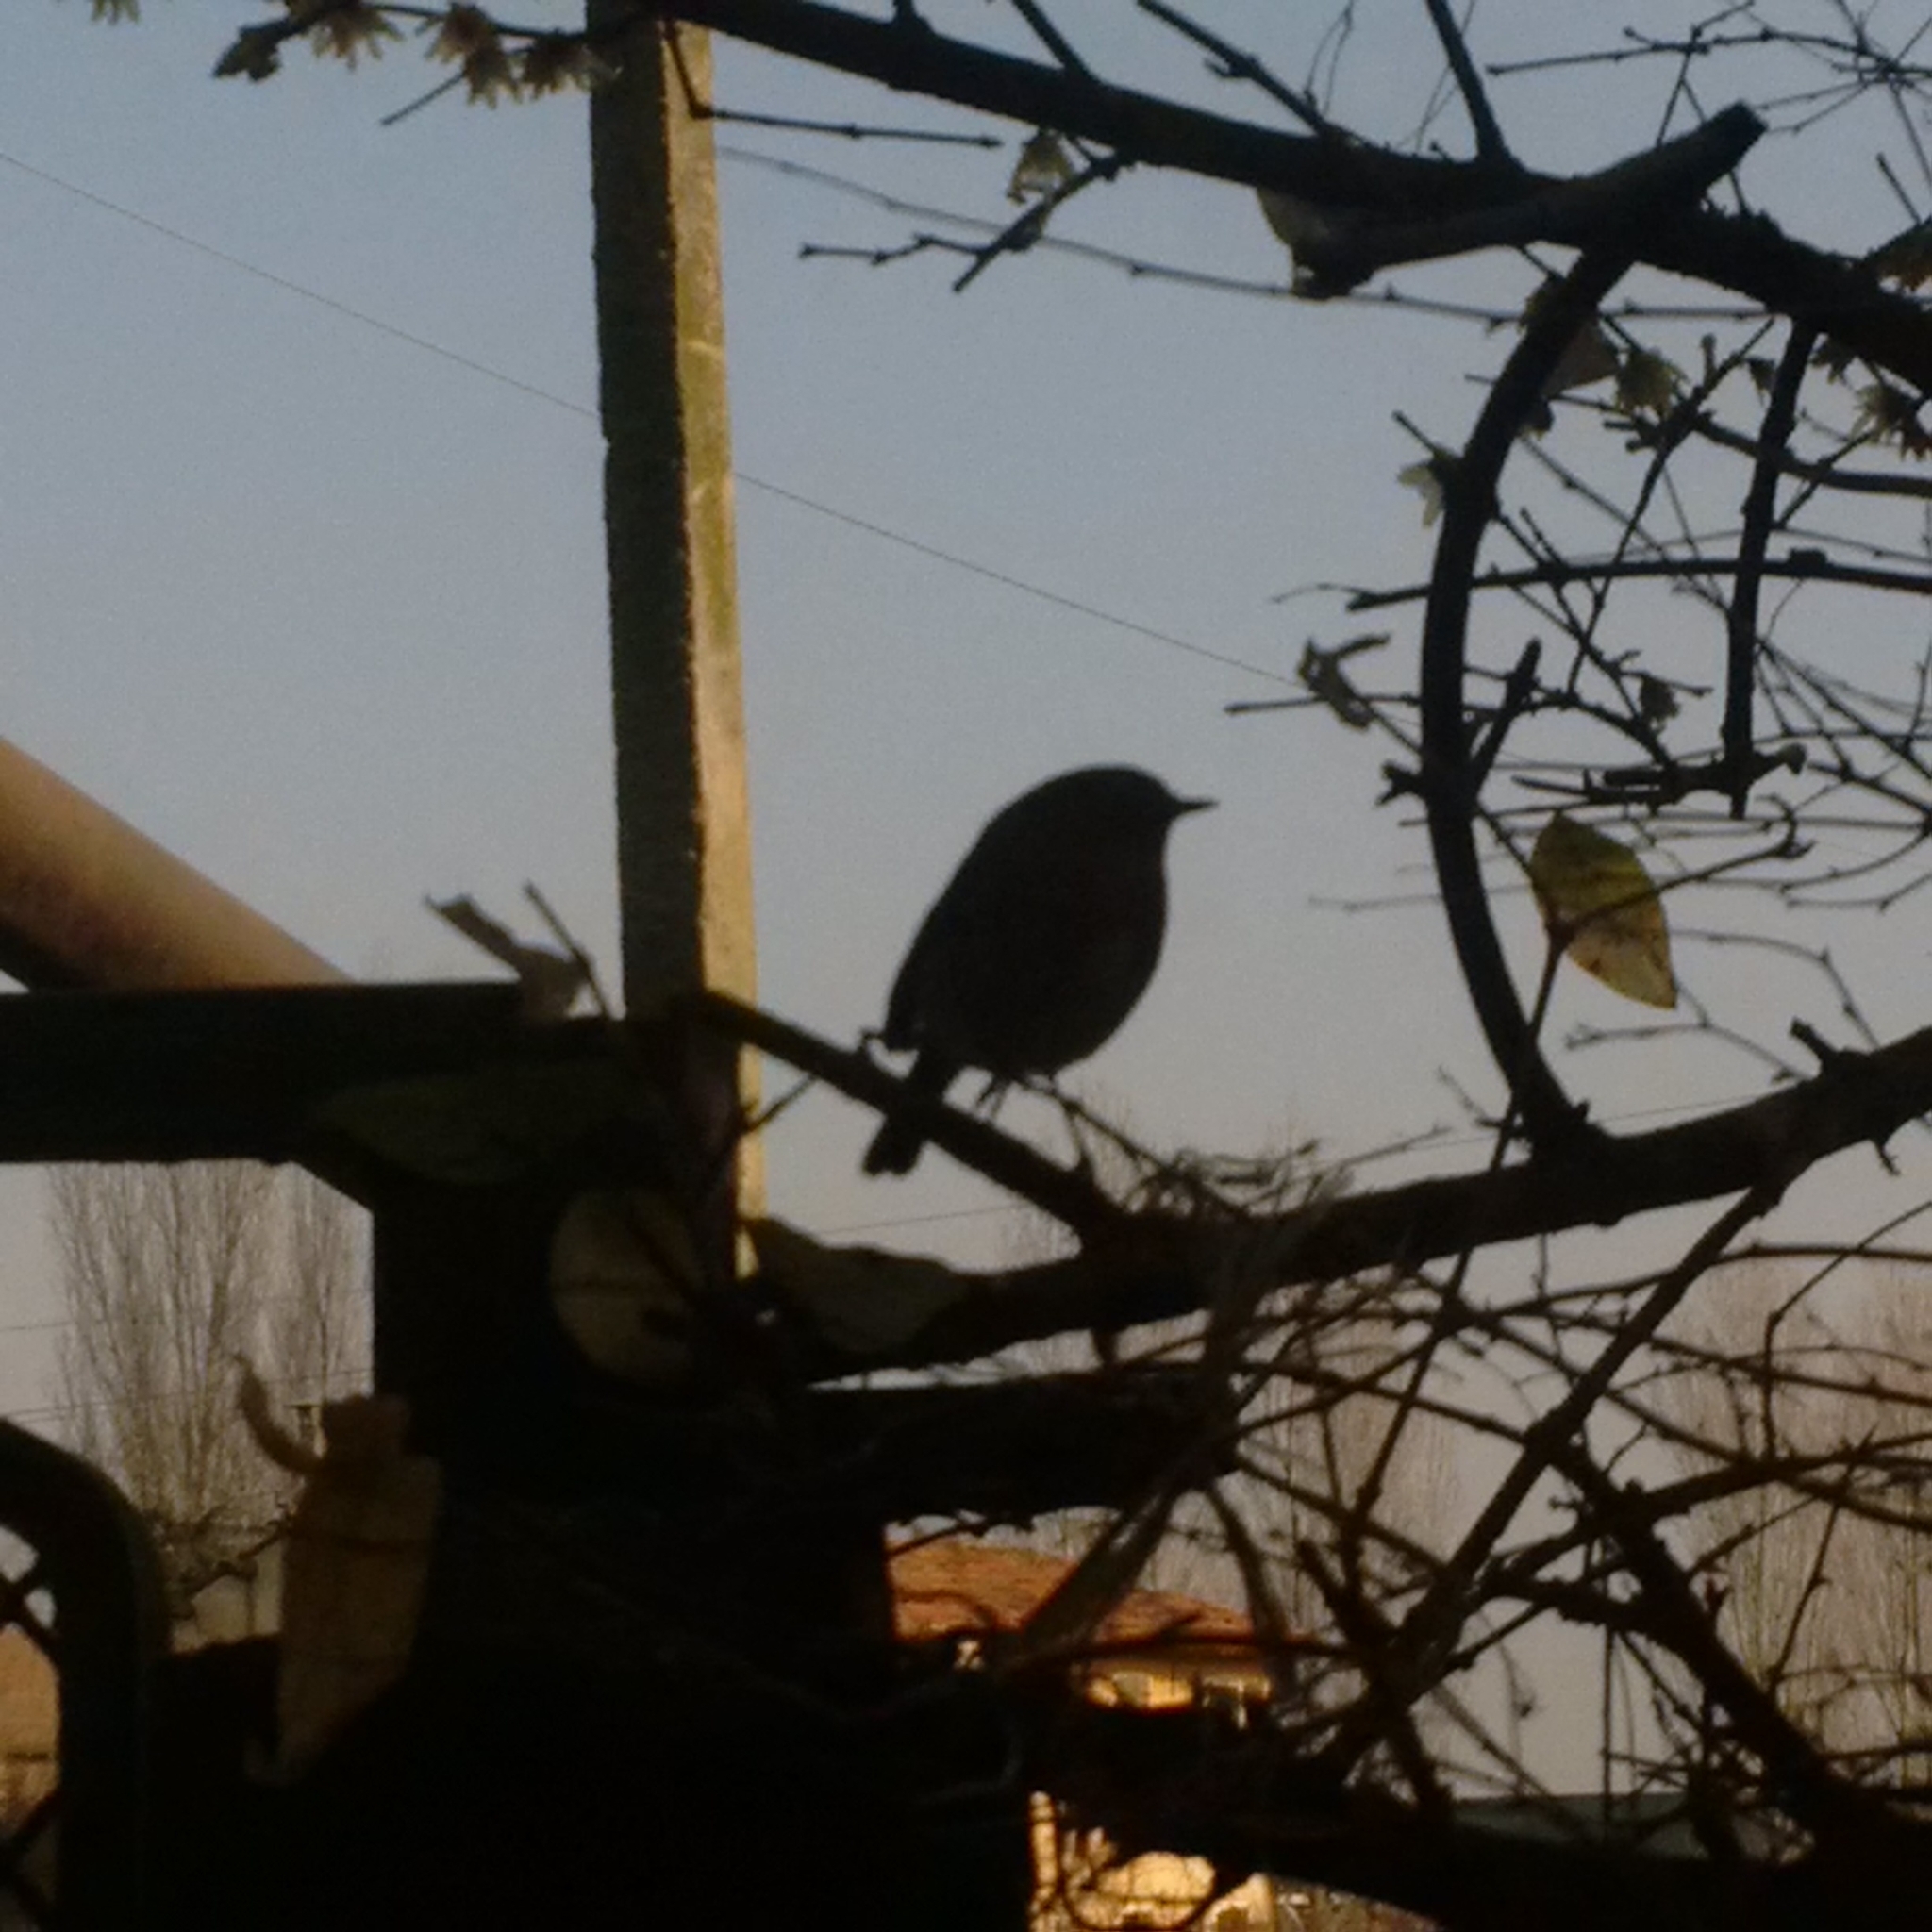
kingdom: Animalia
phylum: Chordata
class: Aves
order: Passeriformes
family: Muscicapidae
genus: Erithacus
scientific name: Erithacus rubecula
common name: European robin
